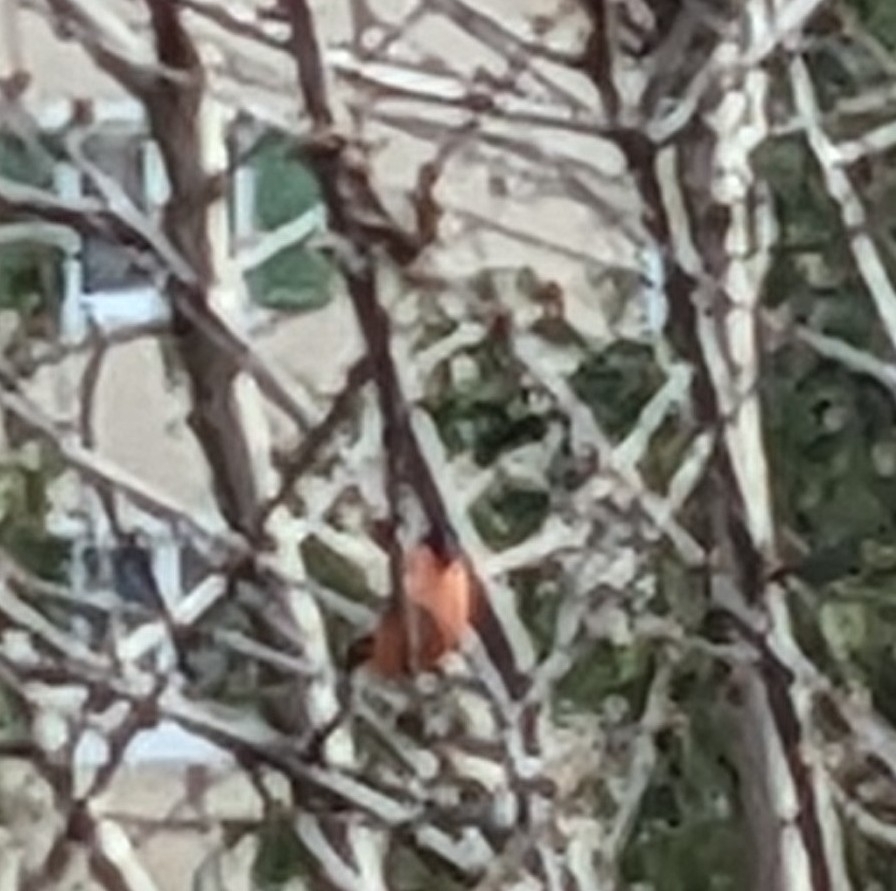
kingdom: Animalia
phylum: Chordata
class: Aves
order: Passeriformes
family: Fringillidae
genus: Pyrrhula
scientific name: Pyrrhula pyrrhula
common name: Eurasian bullfinch
